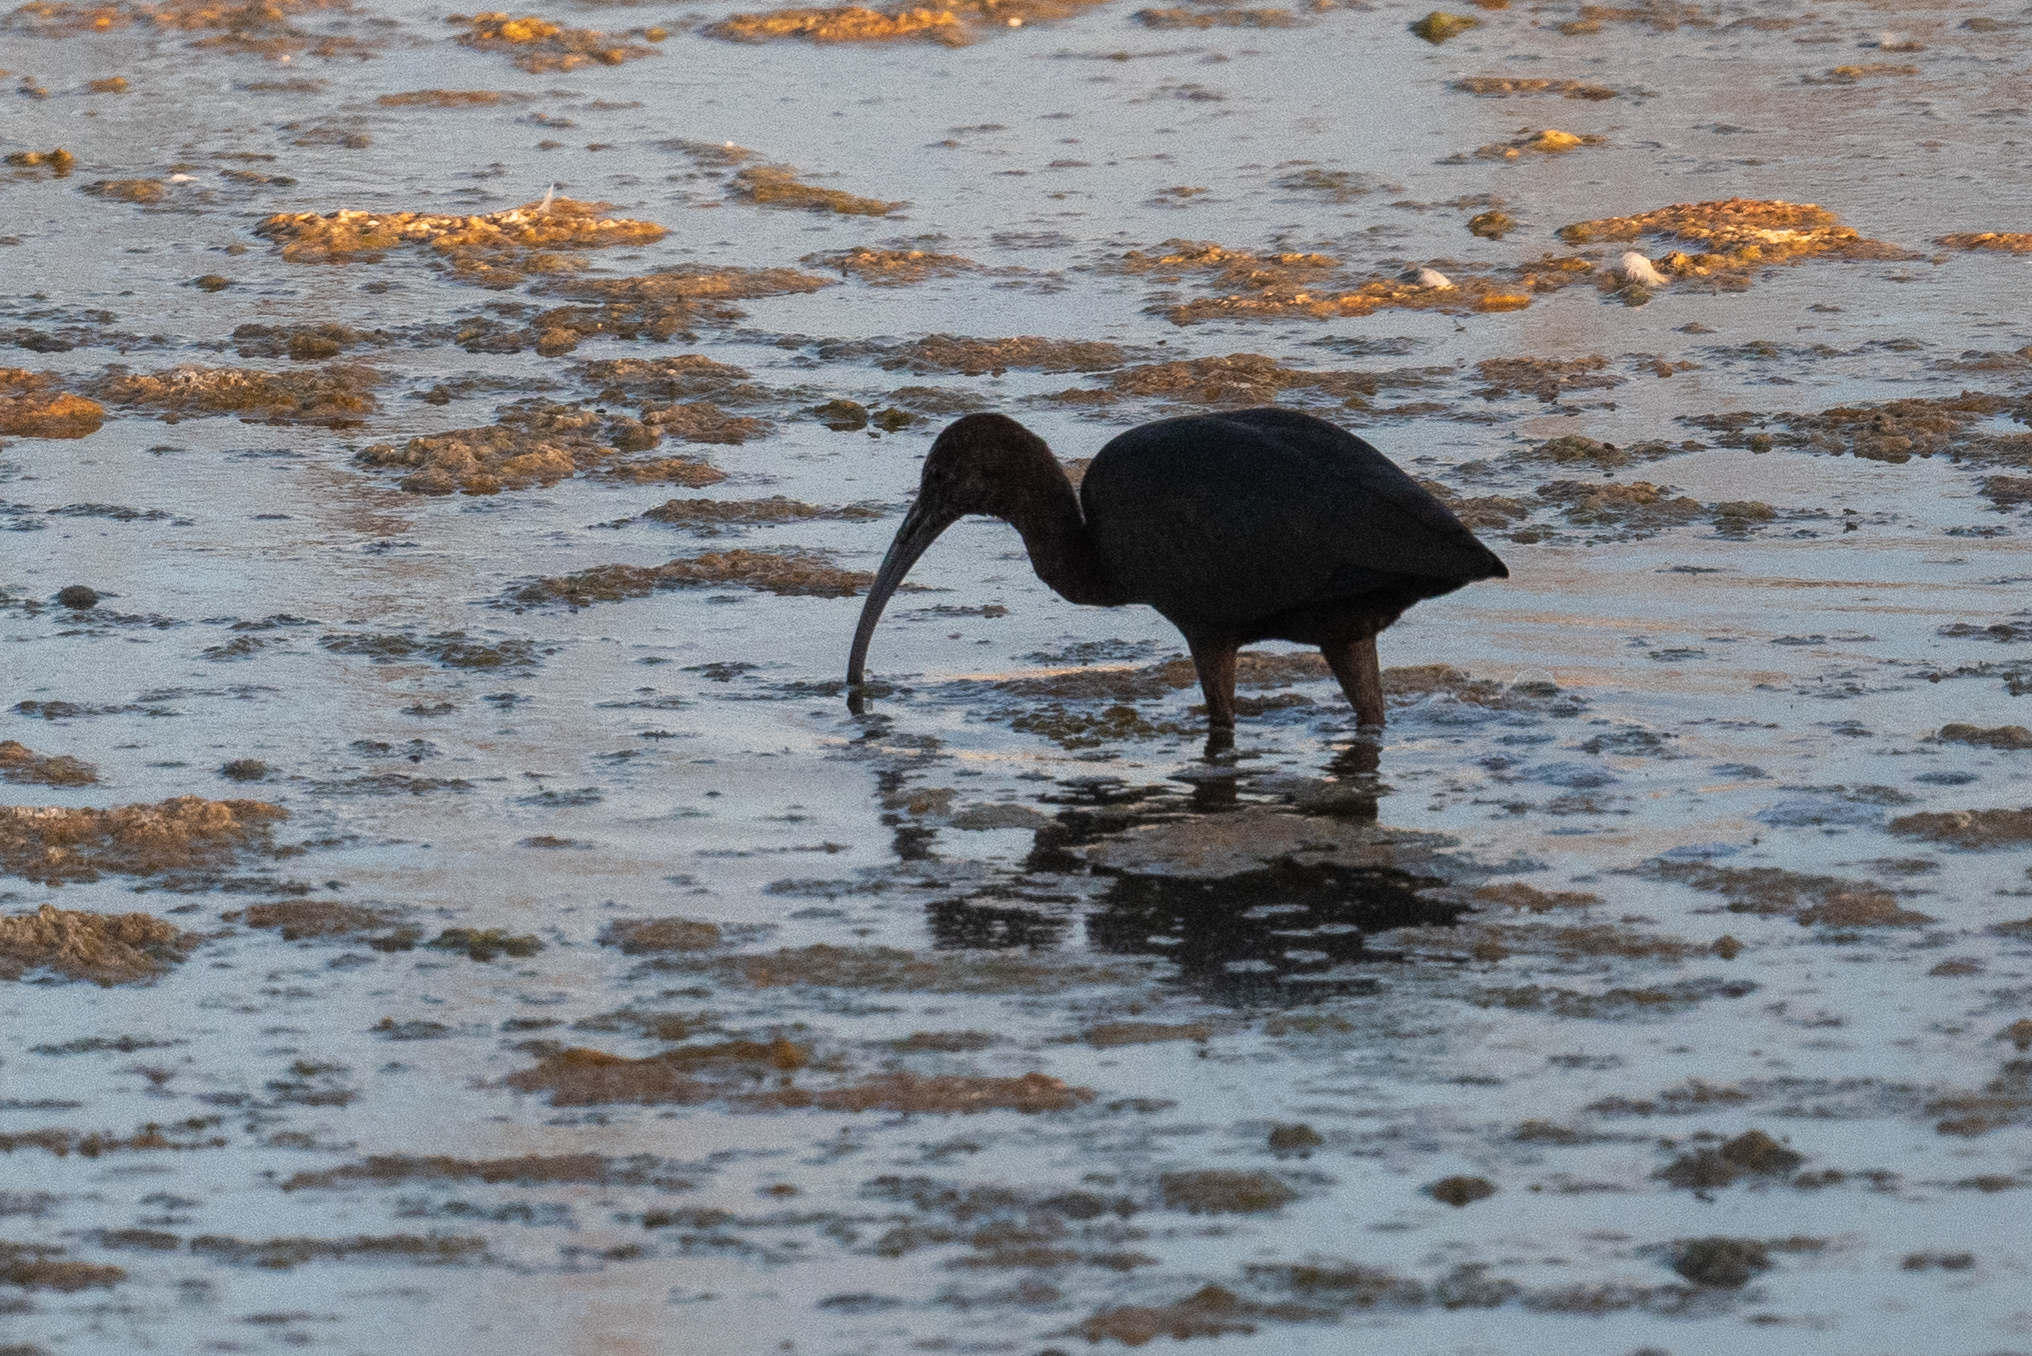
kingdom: Animalia
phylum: Chordata
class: Aves
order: Pelecaniformes
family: Threskiornithidae
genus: Plegadis
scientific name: Plegadis chihi
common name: White-faced ibis
